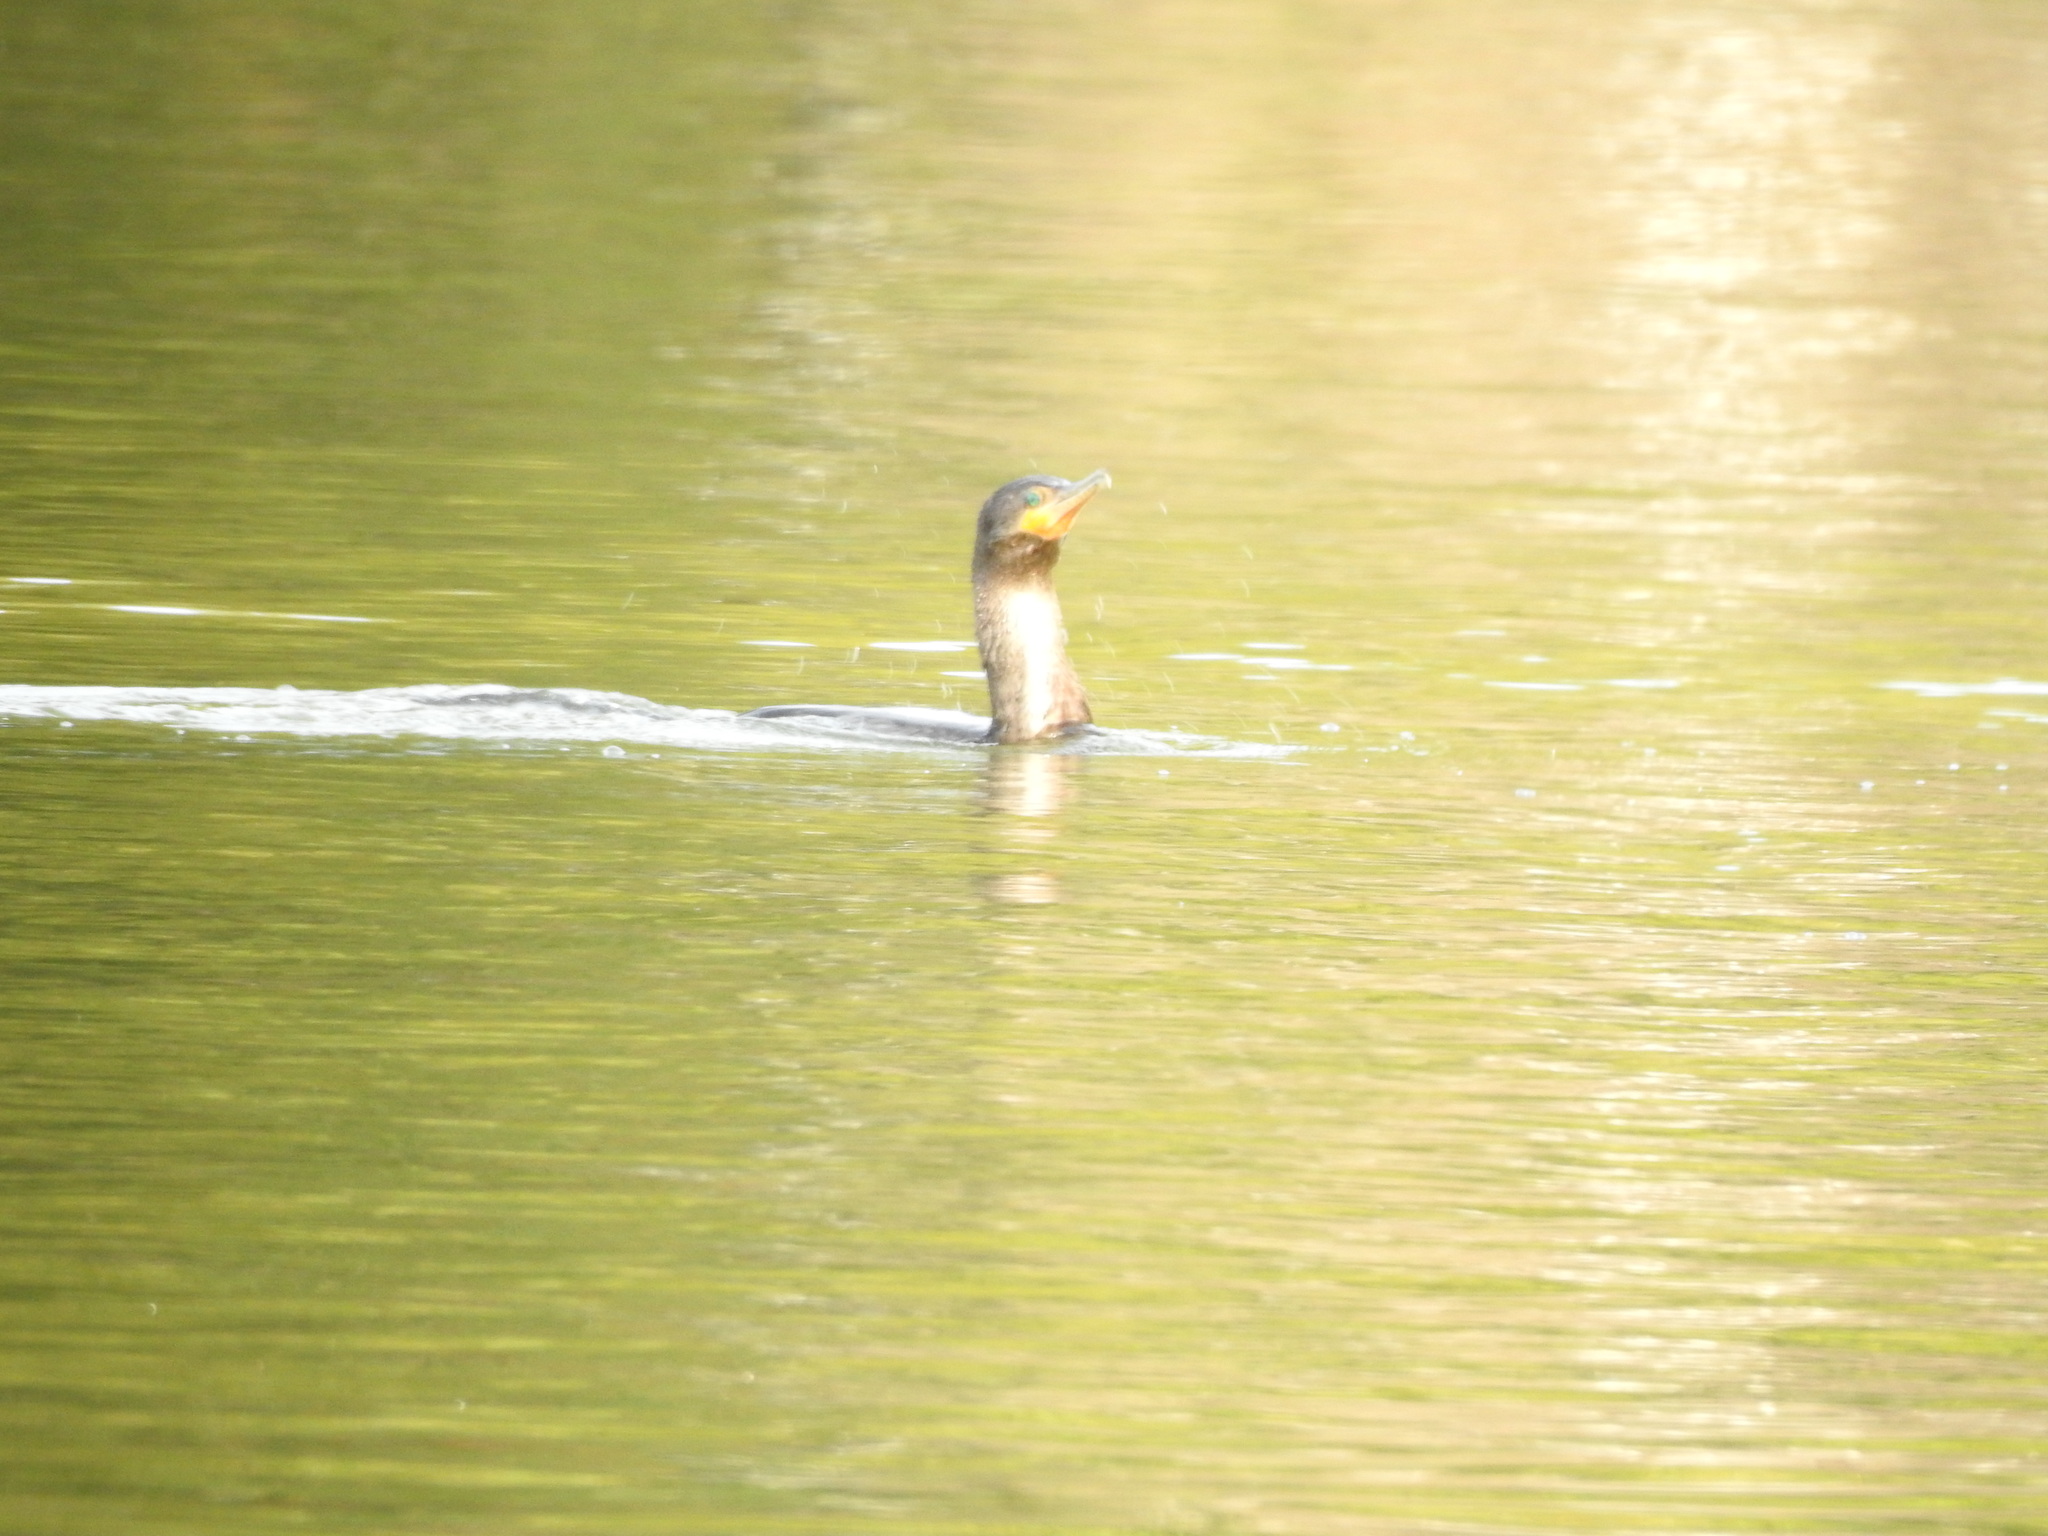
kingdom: Animalia
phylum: Chordata
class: Aves
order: Suliformes
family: Phalacrocoracidae
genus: Phalacrocorax
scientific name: Phalacrocorax brasilianus
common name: Neotropic cormorant
